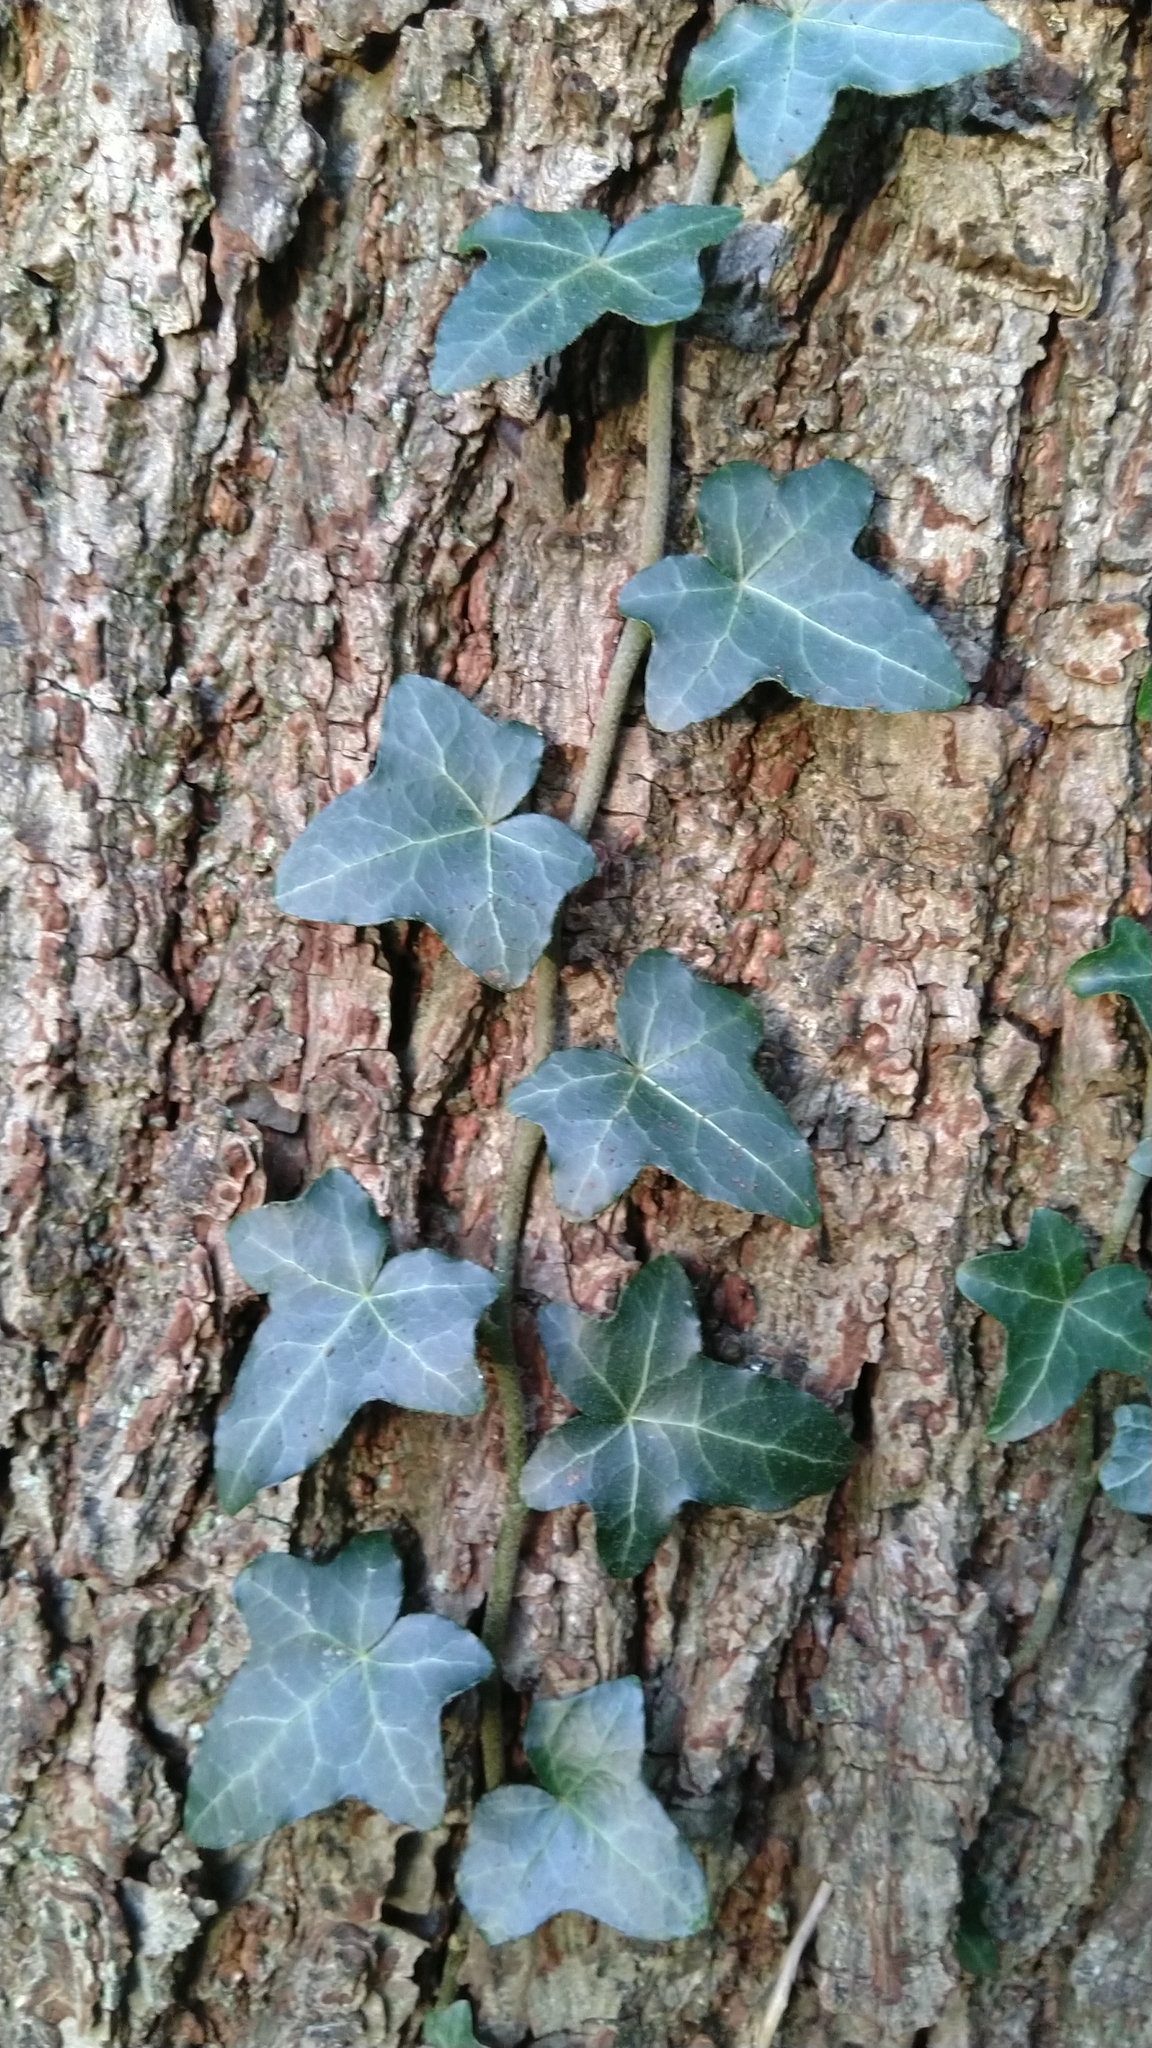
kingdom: Plantae
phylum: Tracheophyta
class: Magnoliopsida
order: Apiales
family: Araliaceae
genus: Hedera
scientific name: Hedera helix
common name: Ivy
